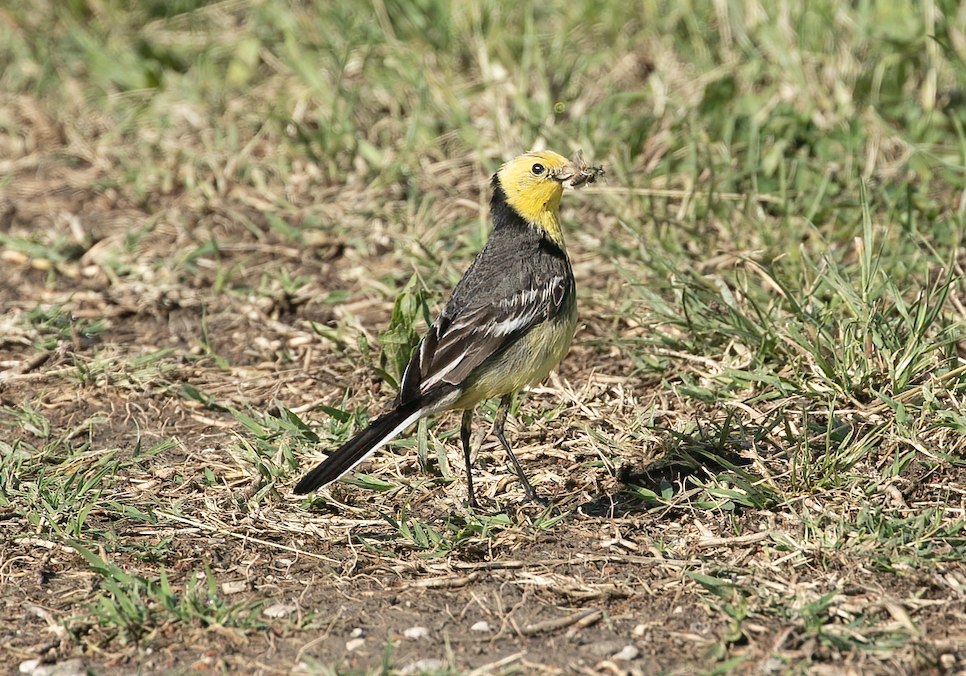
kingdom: Animalia
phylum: Chordata
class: Aves
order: Passeriformes
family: Motacillidae
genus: Motacilla
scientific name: Motacilla citreola
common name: Citrine wagtail
